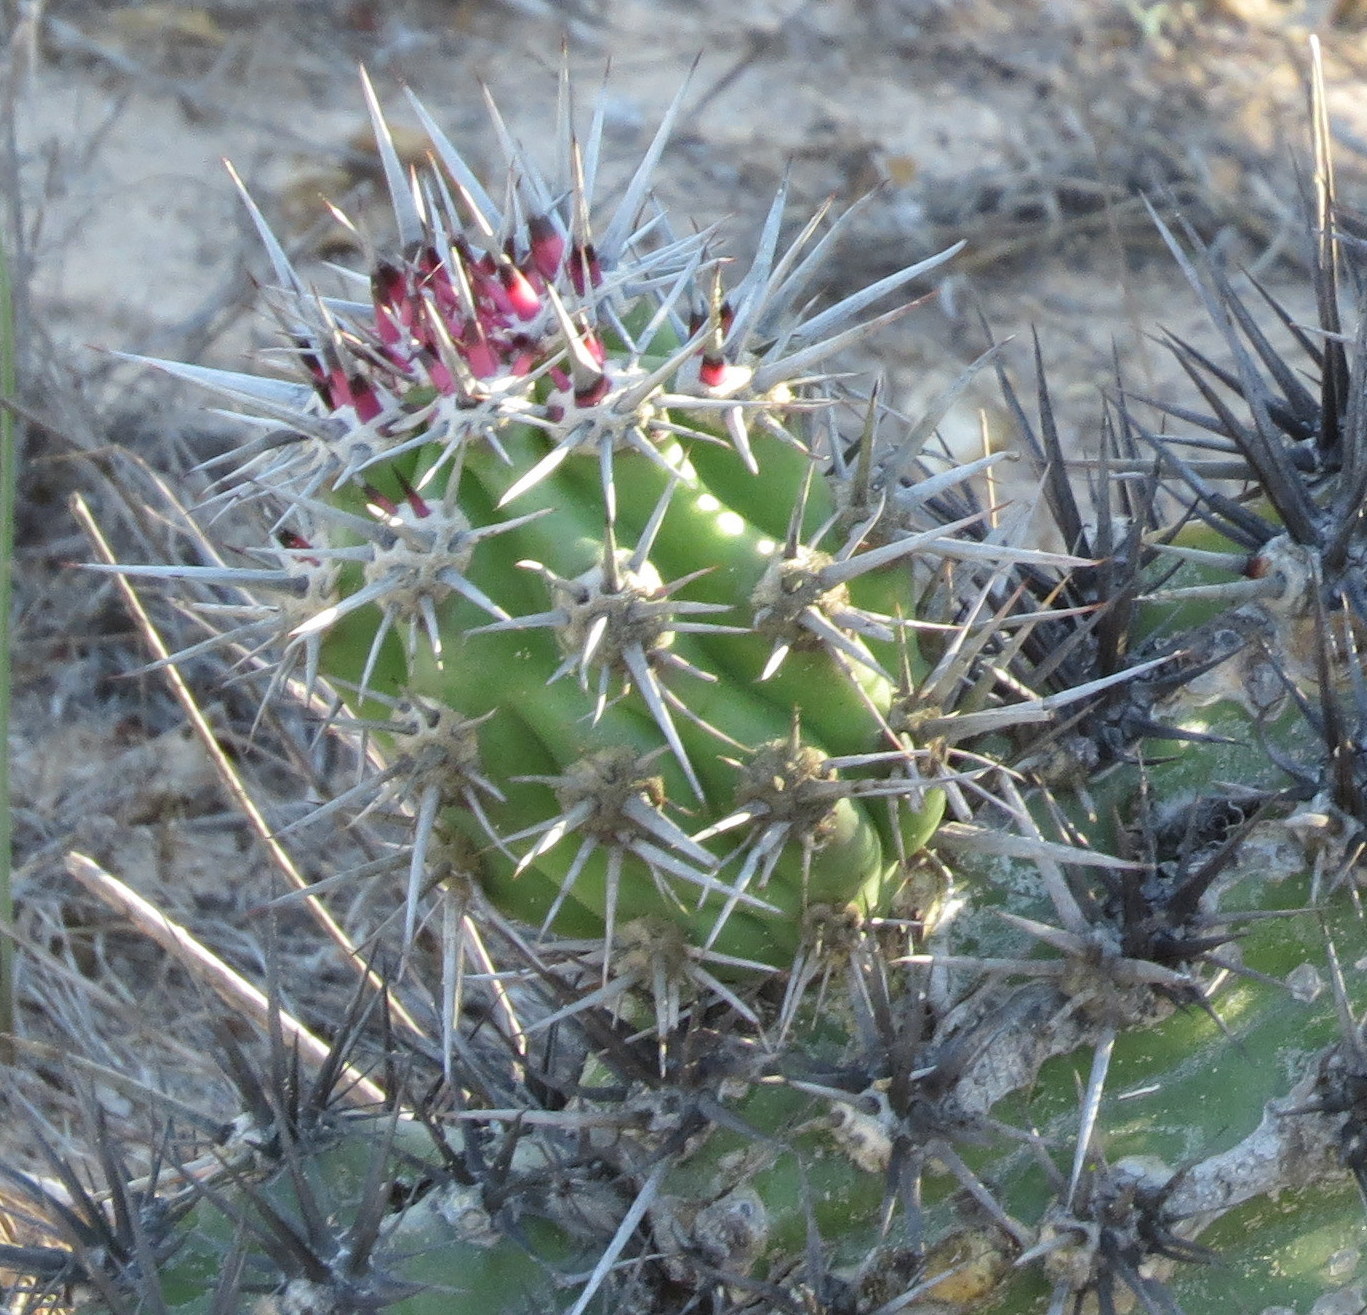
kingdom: Plantae
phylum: Tracheophyta
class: Magnoliopsida
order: Caryophyllales
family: Cactaceae
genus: Stenocereus
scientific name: Stenocereus gummosus
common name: Dagger cactus
